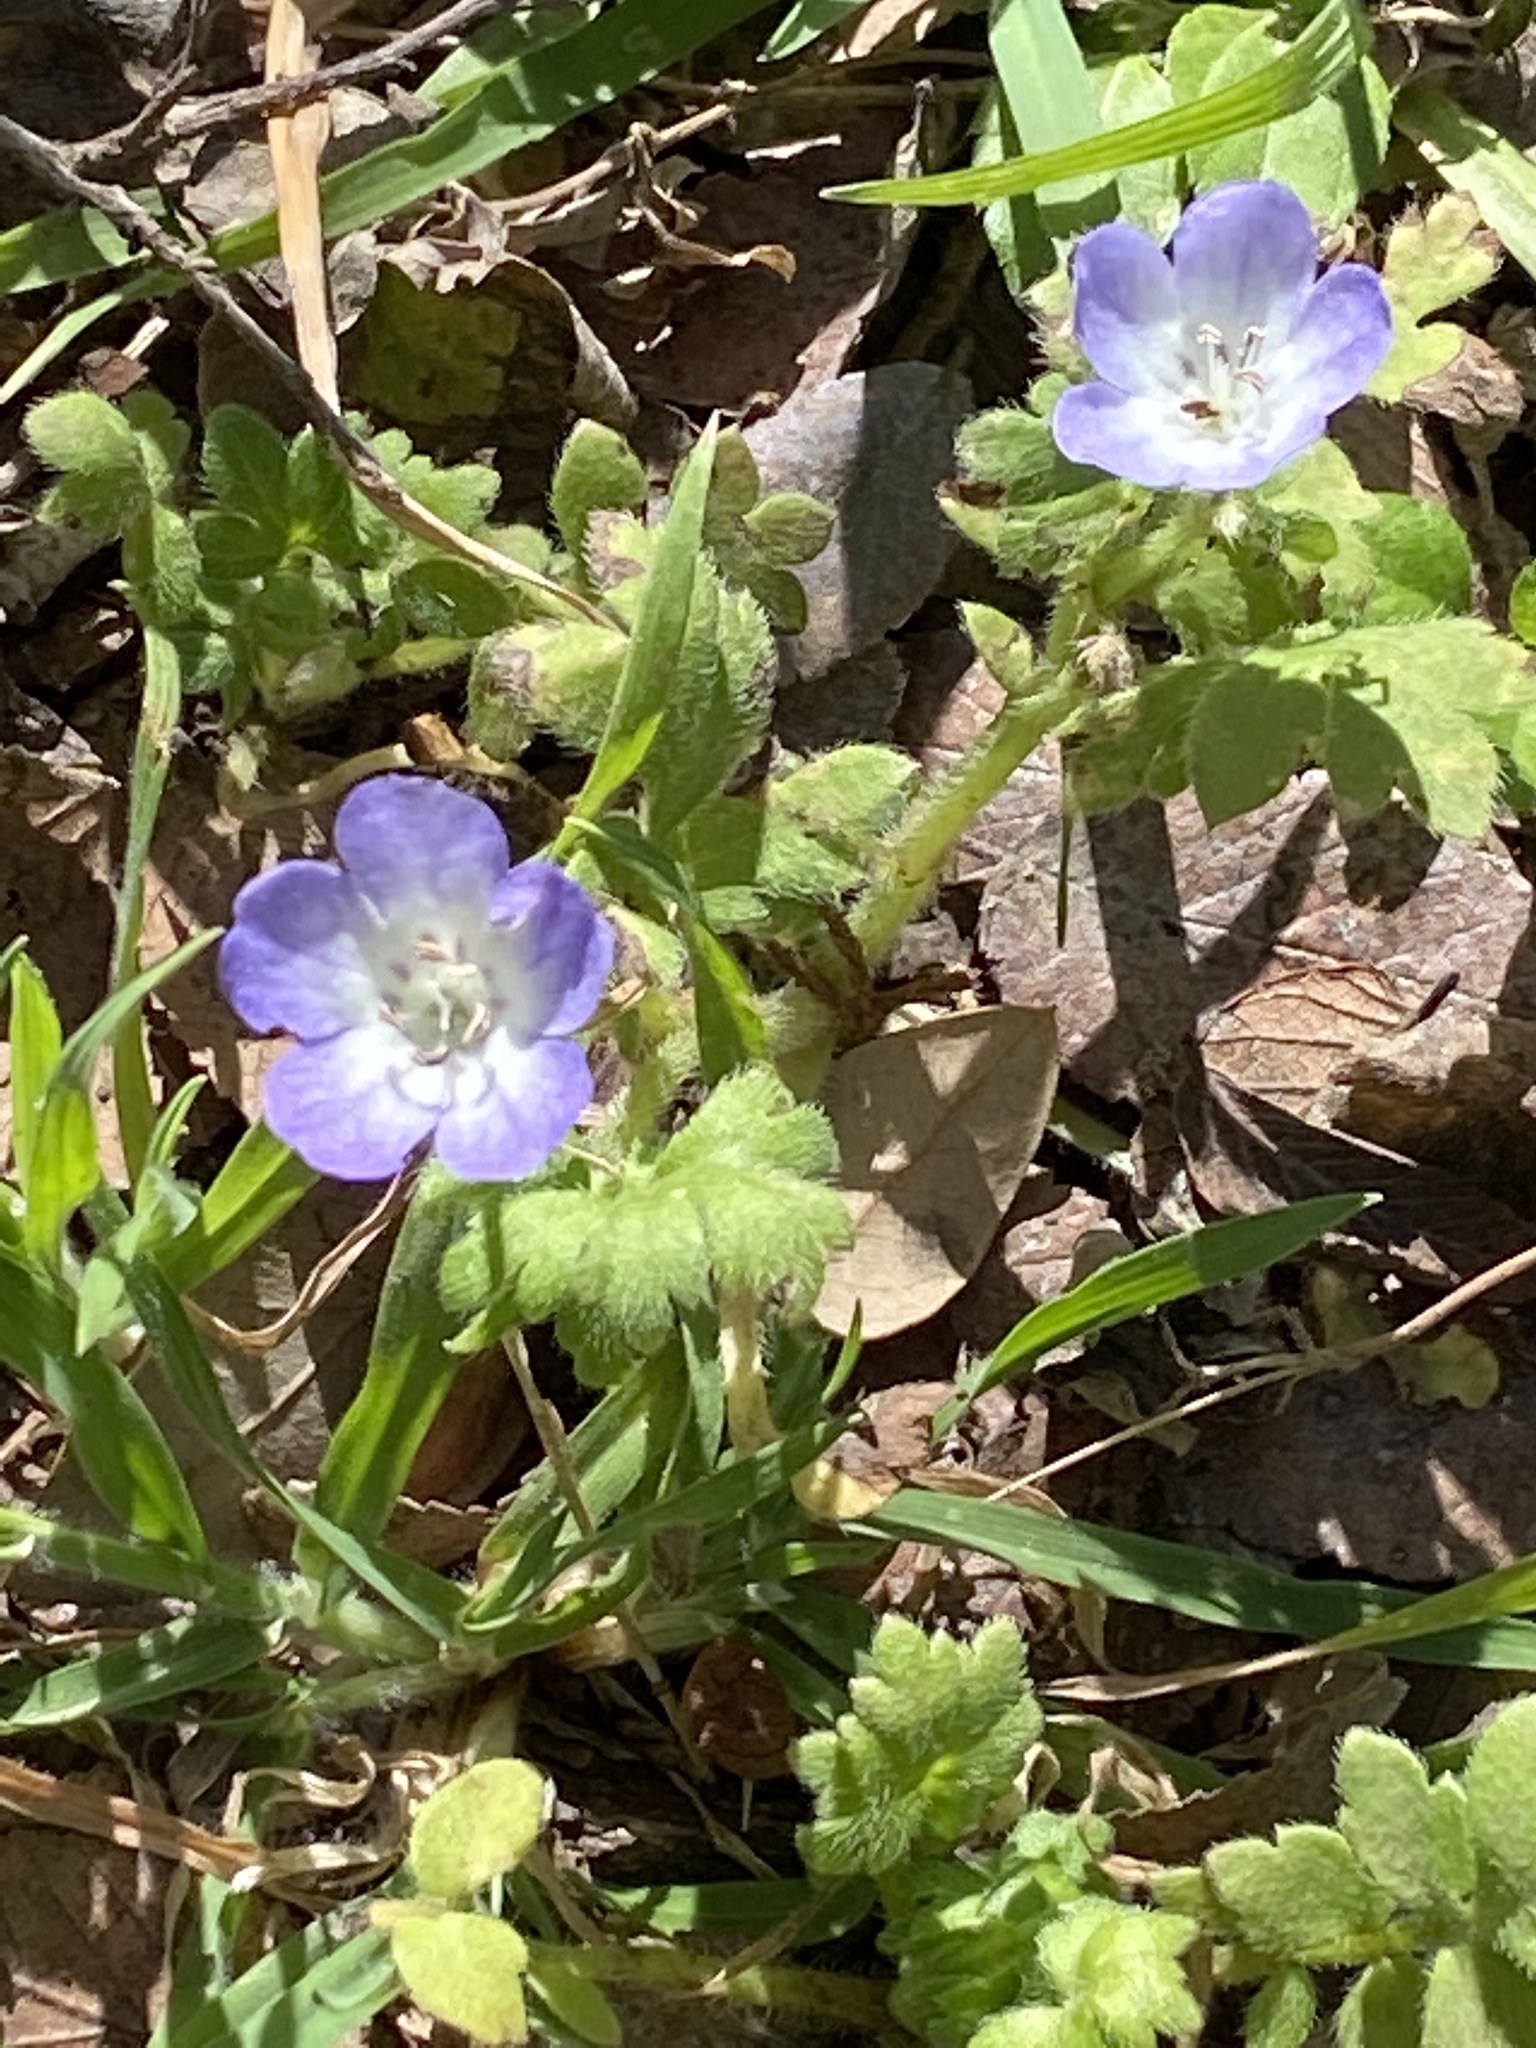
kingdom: Plantae
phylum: Tracheophyta
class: Magnoliopsida
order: Boraginales
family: Hydrophyllaceae
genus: Nemophila
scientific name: Nemophila phacelioides
